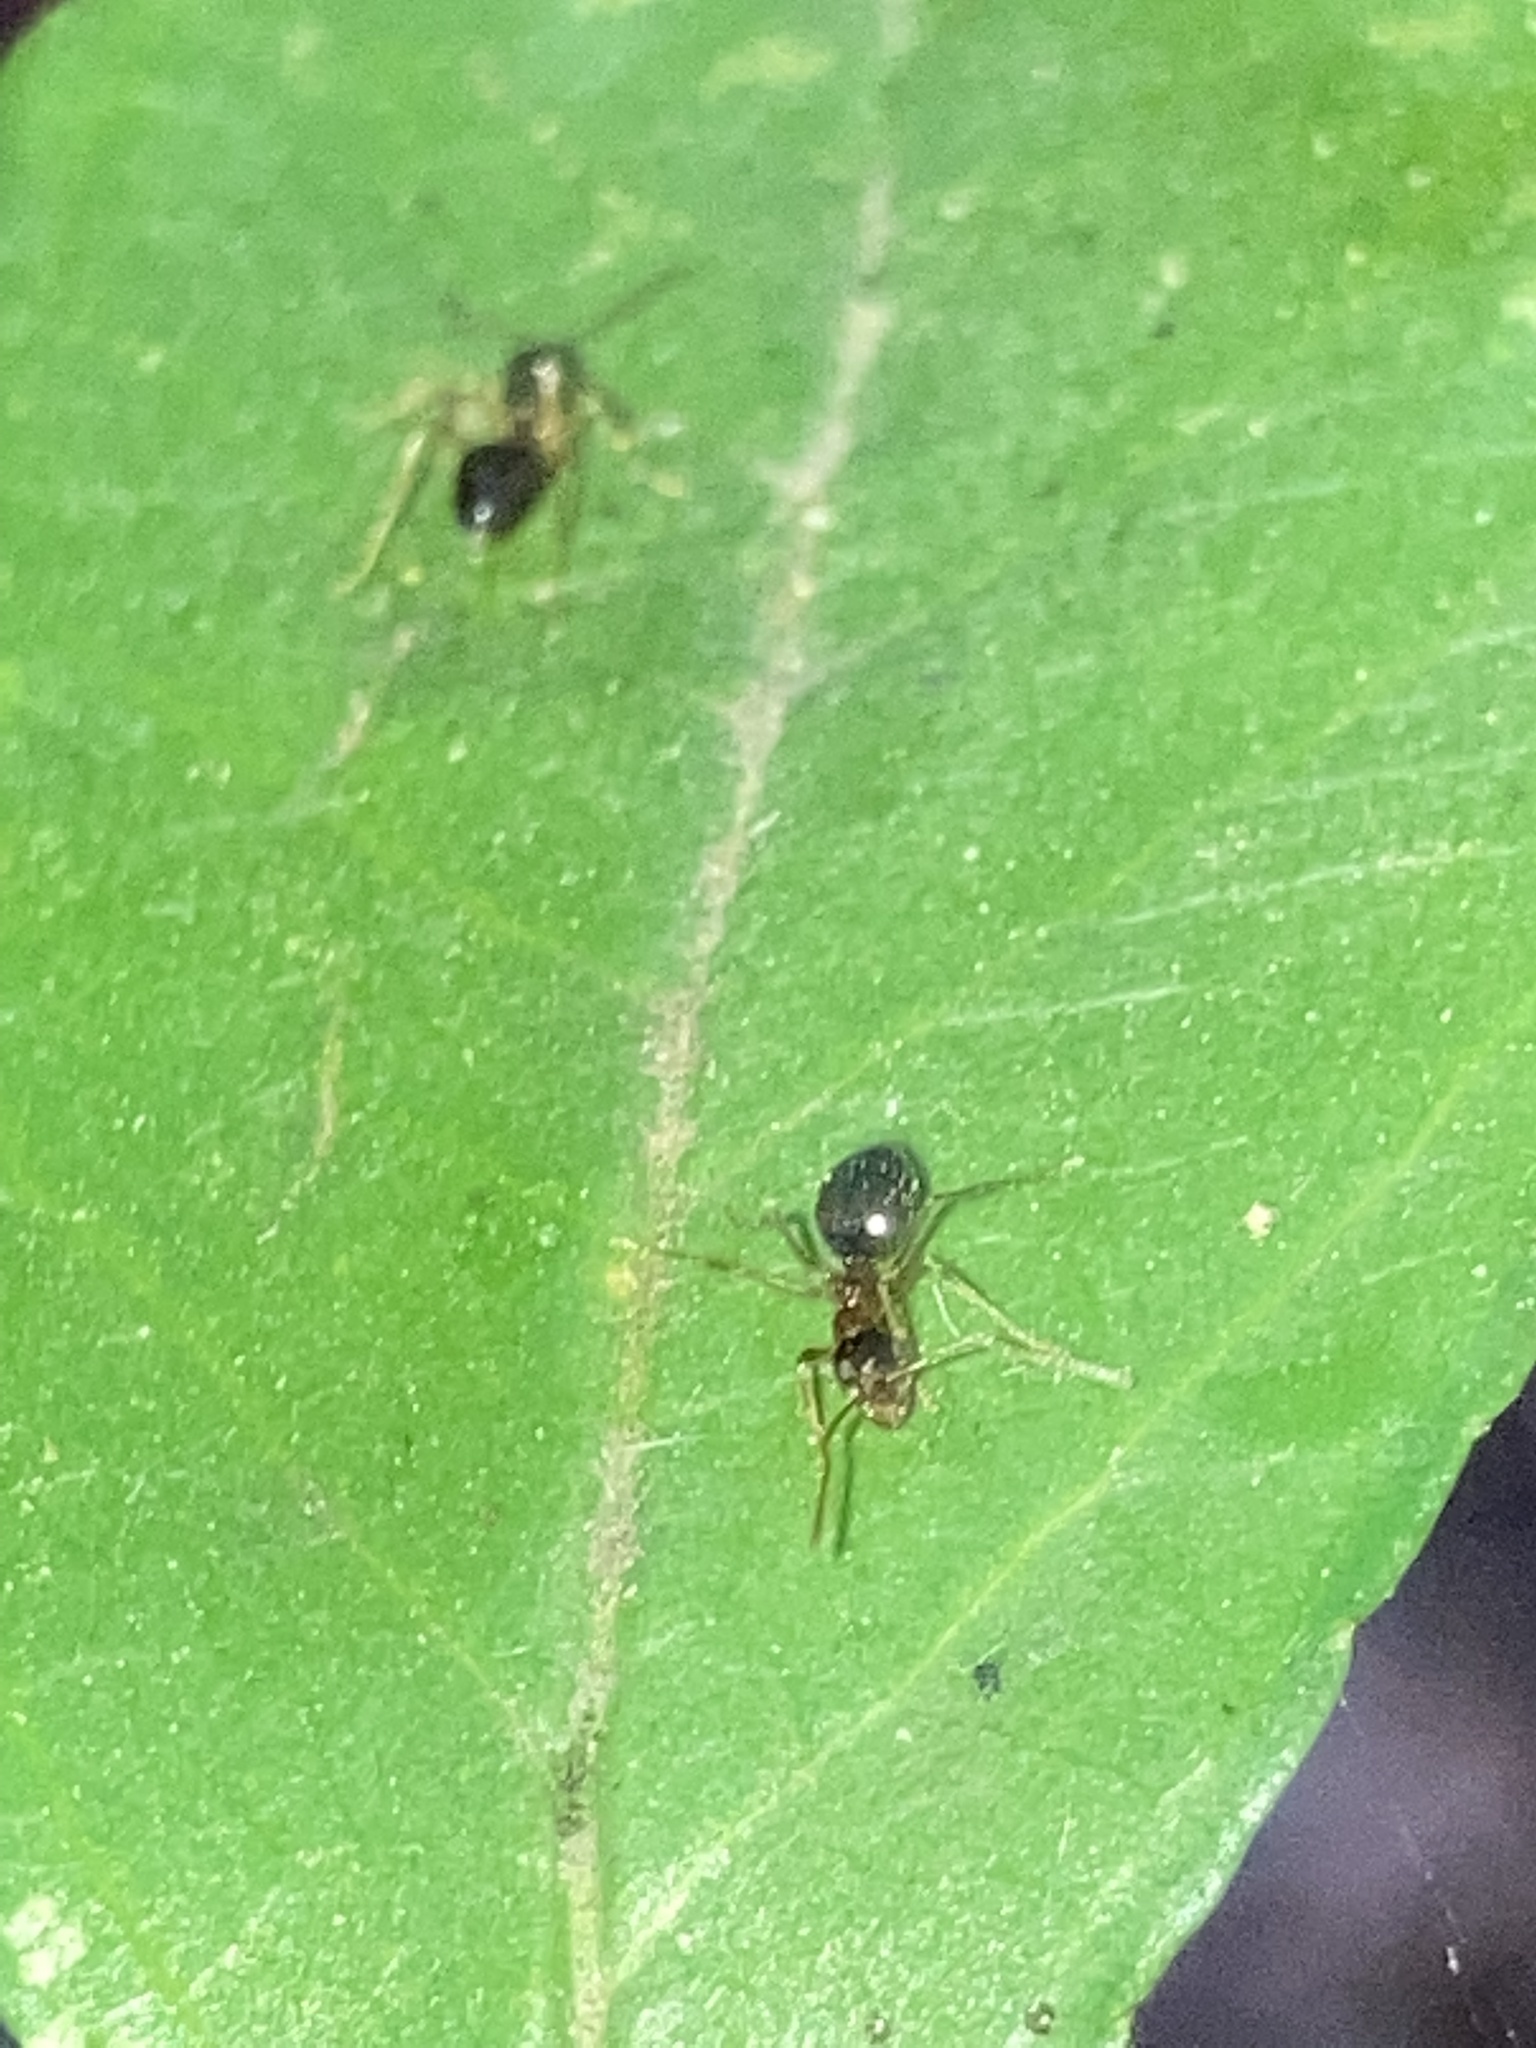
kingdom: Animalia
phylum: Arthropoda
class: Insecta
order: Hymenoptera
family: Formicidae
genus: Prenolepis
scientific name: Prenolepis imparis
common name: Small honey ant
